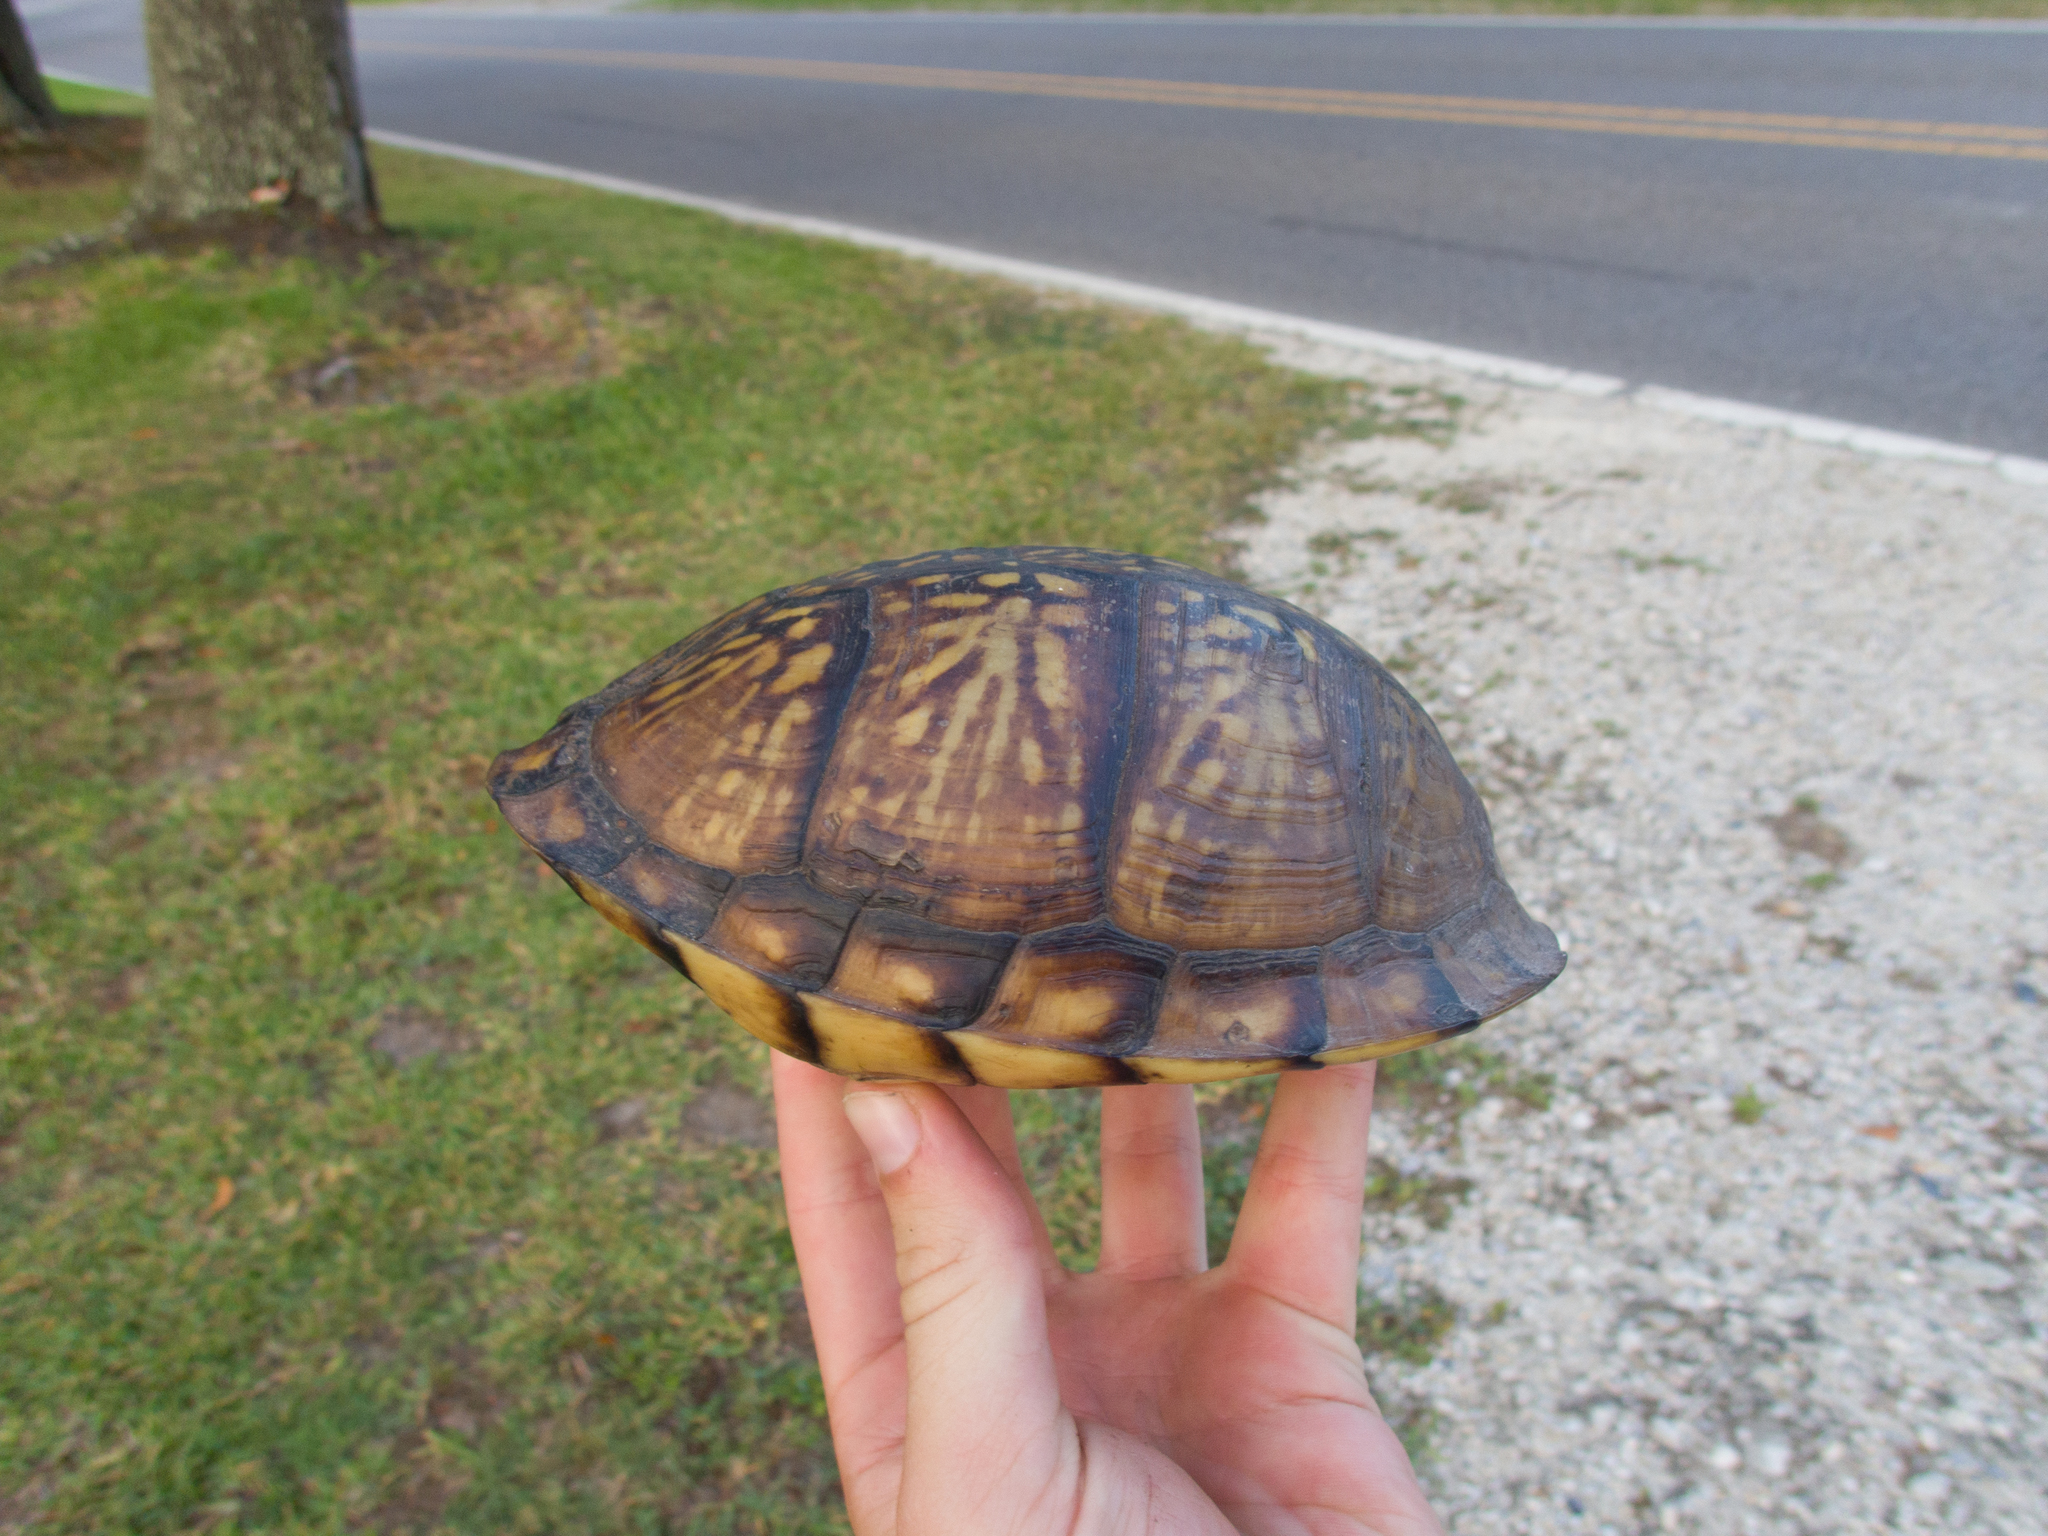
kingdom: Animalia
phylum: Chordata
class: Testudines
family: Emydidae
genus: Terrapene
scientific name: Terrapene carolina
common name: Common box turtle
